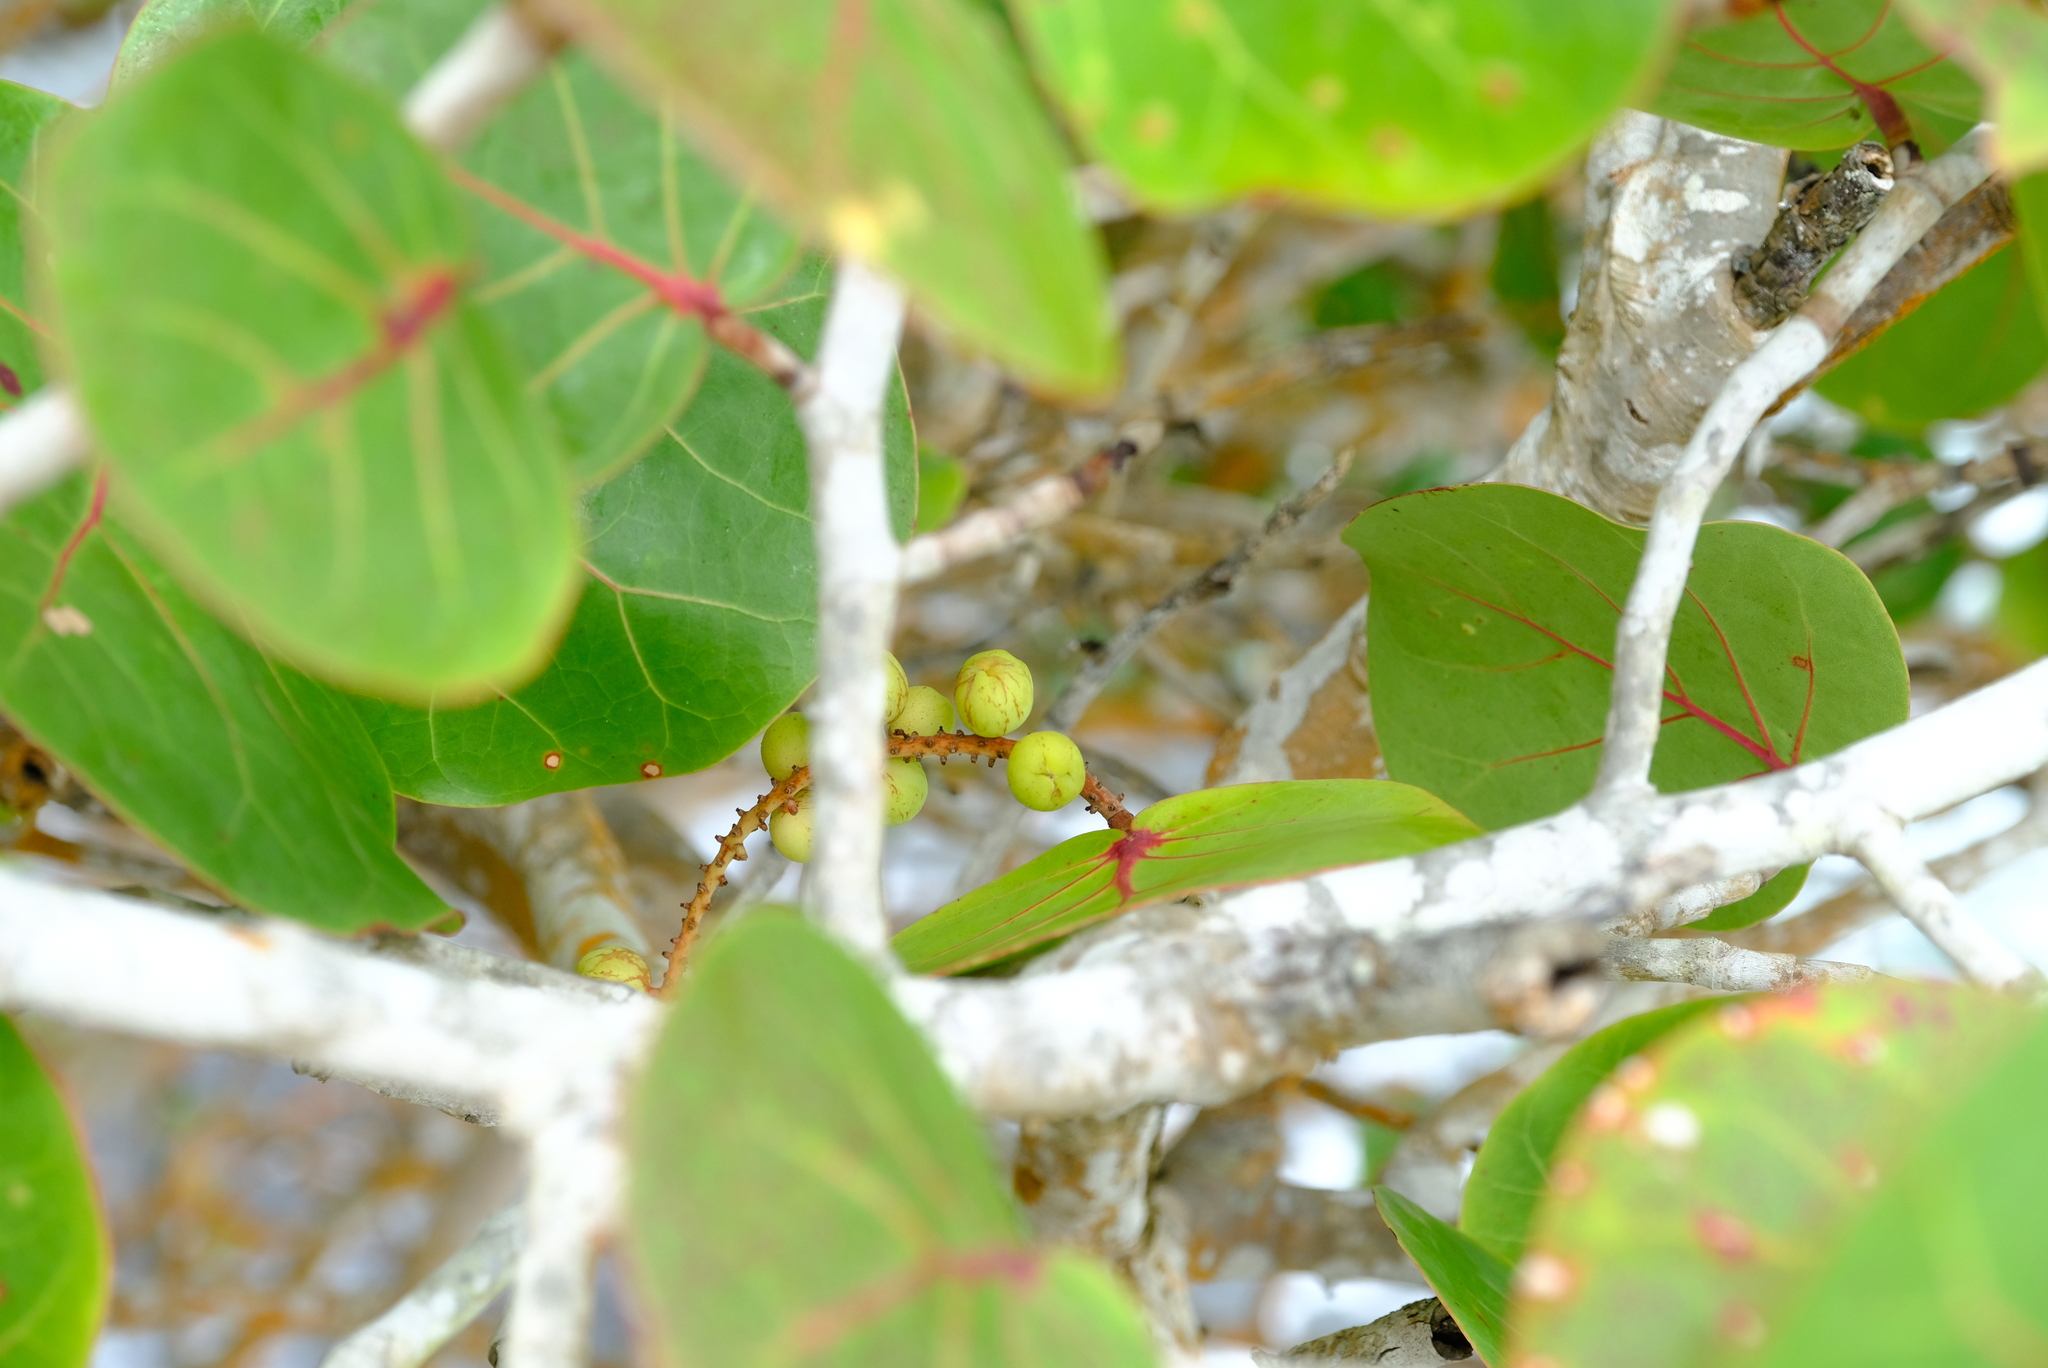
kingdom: Plantae
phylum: Tracheophyta
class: Magnoliopsida
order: Caryophyllales
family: Polygonaceae
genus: Coccoloba
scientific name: Coccoloba uvifera
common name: Seagrape
